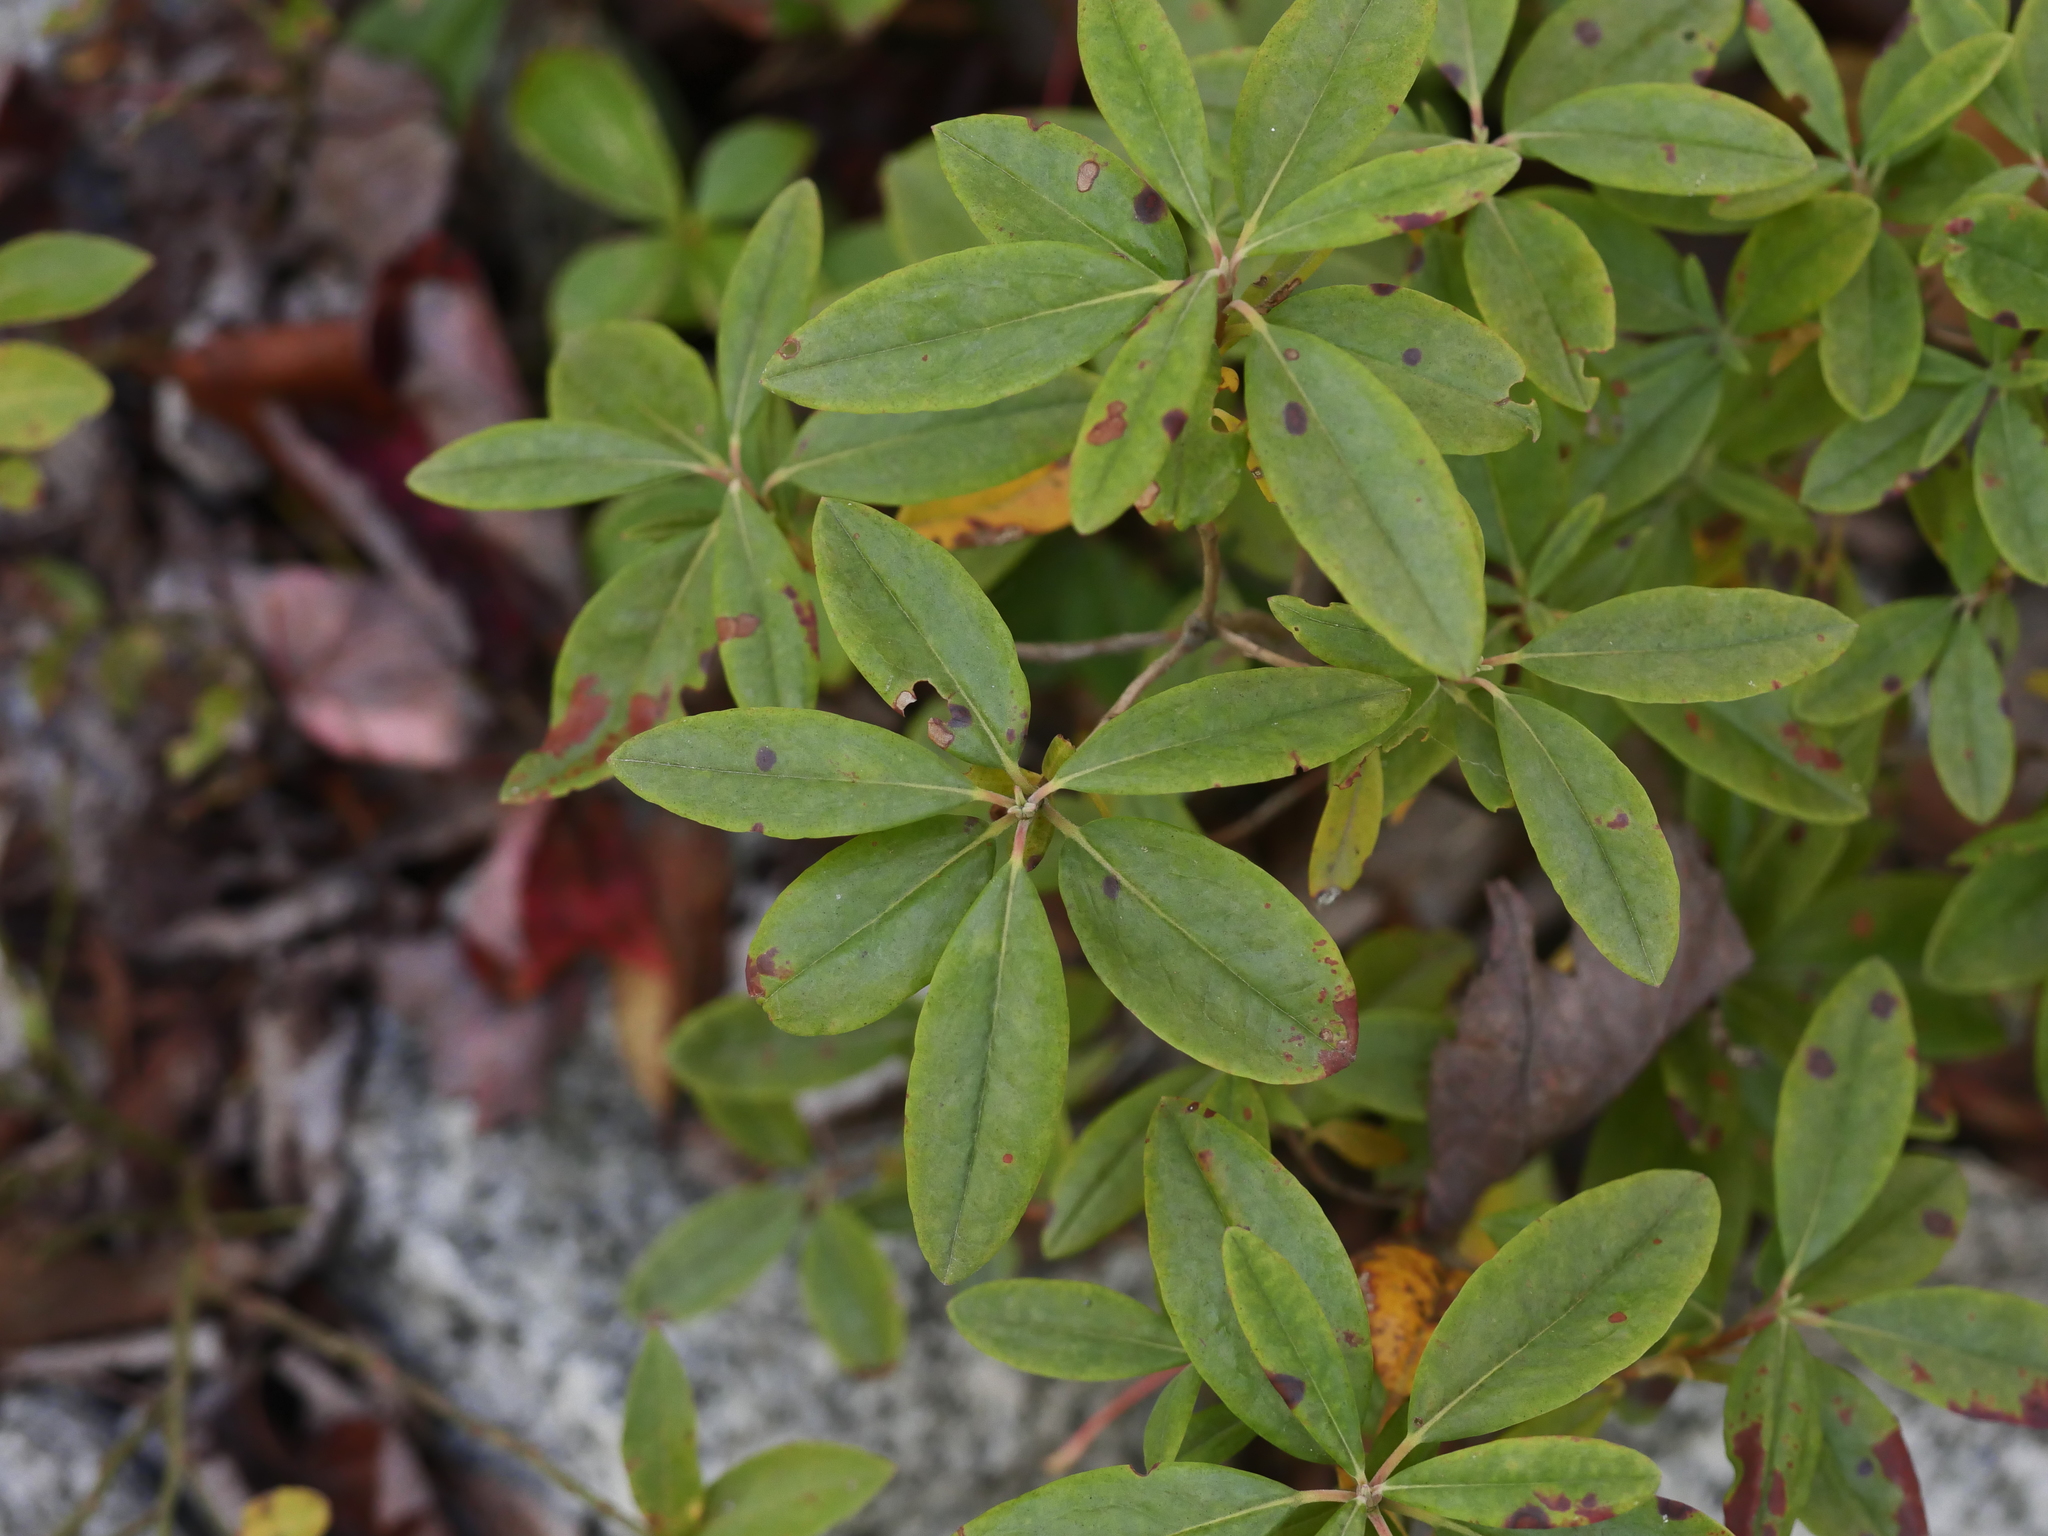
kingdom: Plantae
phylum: Tracheophyta
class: Magnoliopsida
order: Ericales
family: Ericaceae
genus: Kalmia
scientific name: Kalmia angustifolia
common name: Sheep-laurel
